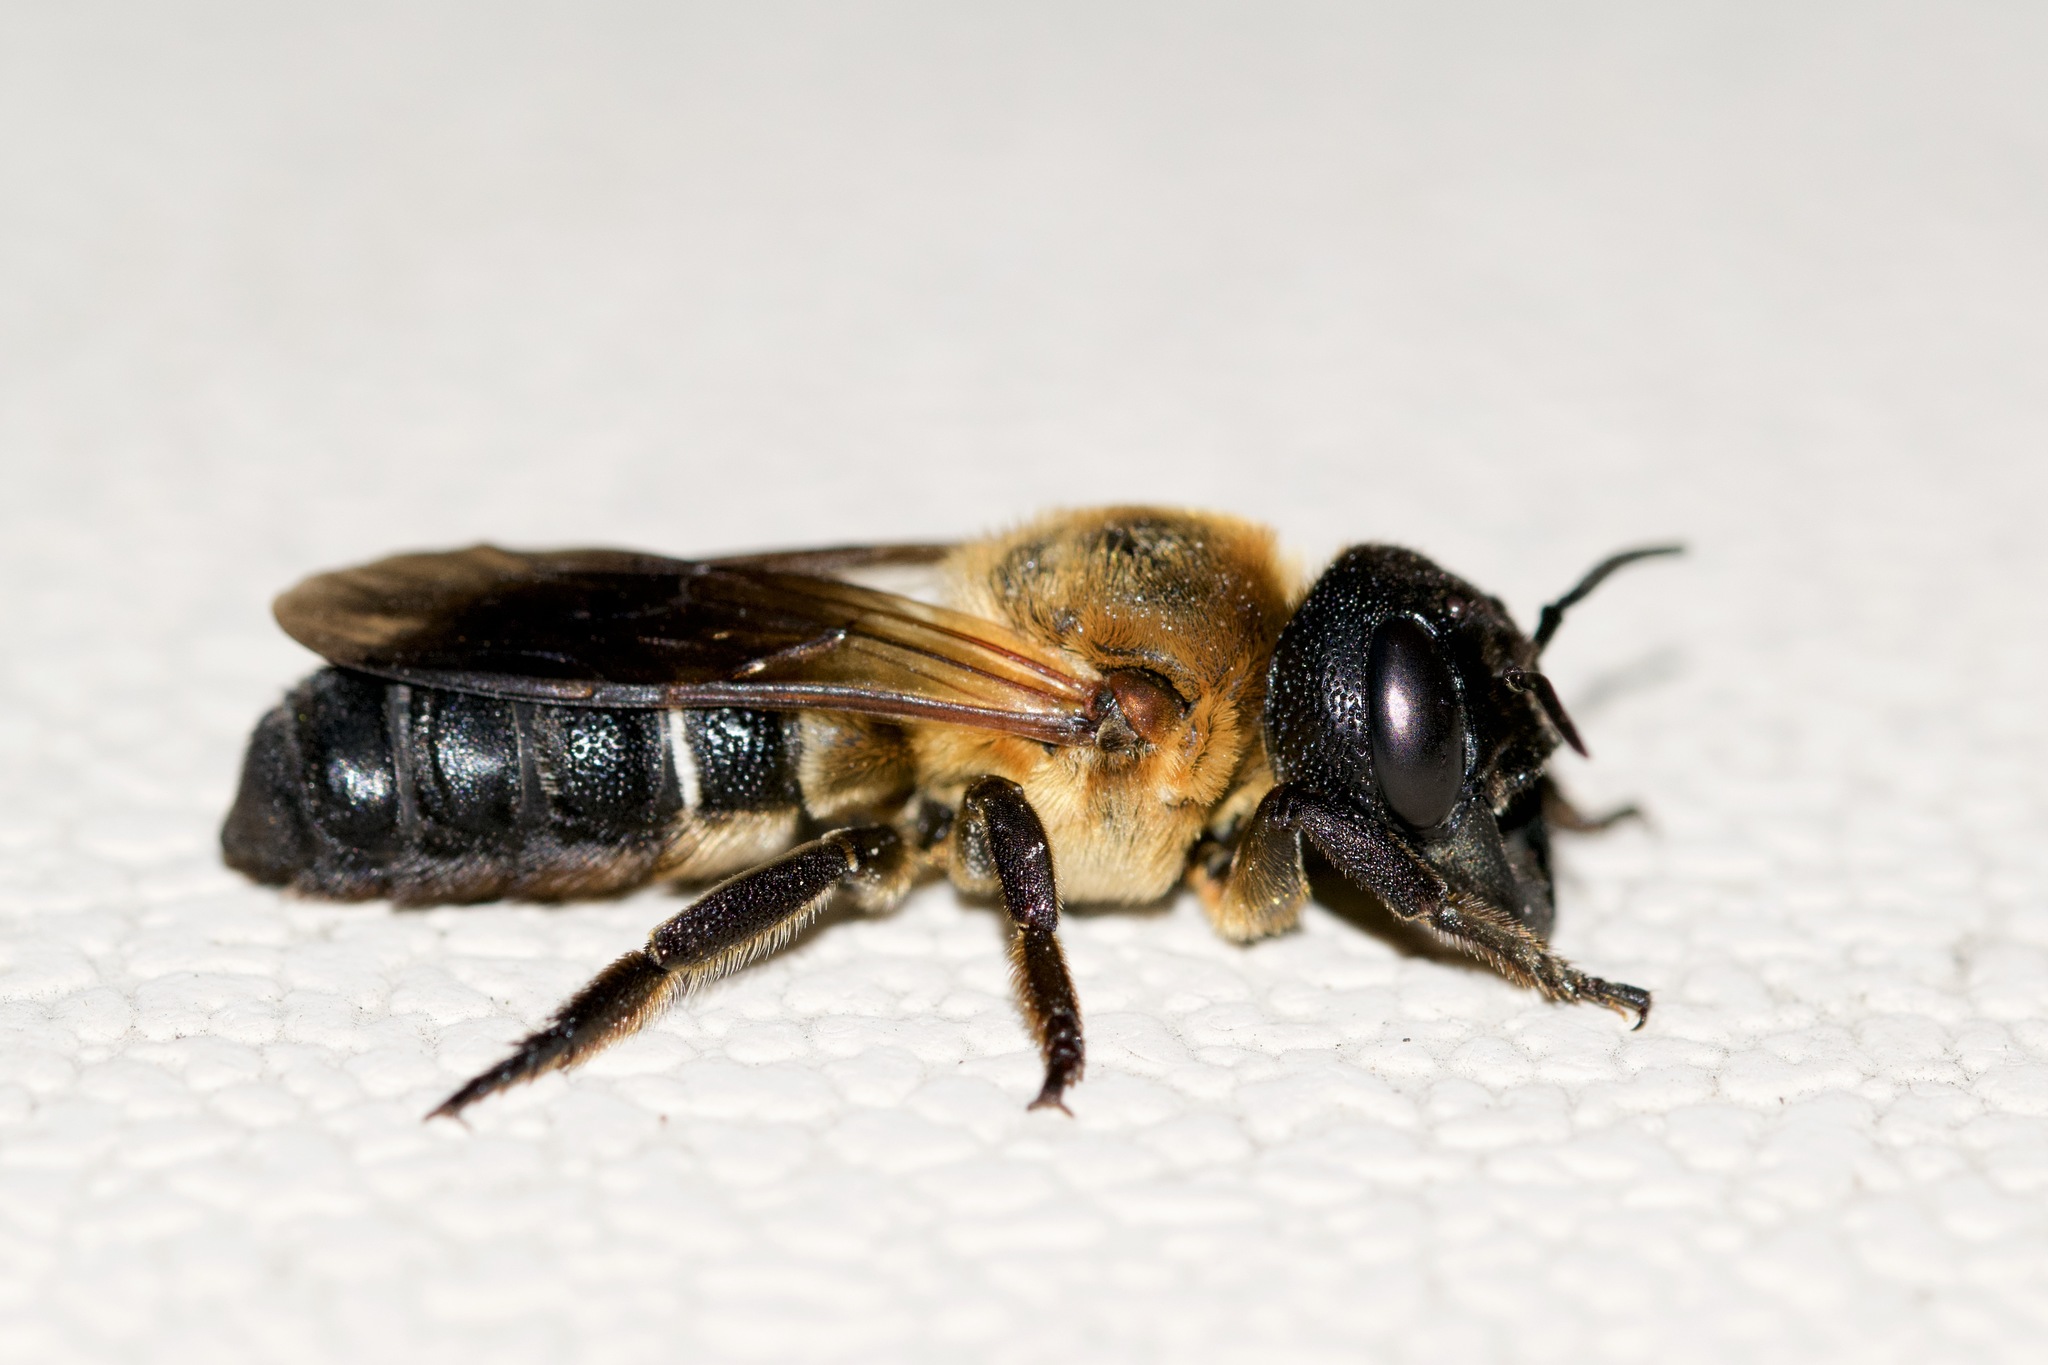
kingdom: Animalia
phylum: Arthropoda
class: Insecta
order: Hymenoptera
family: Megachilidae
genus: Megachile
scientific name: Megachile sculpturalis
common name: Sculptured resin bee
